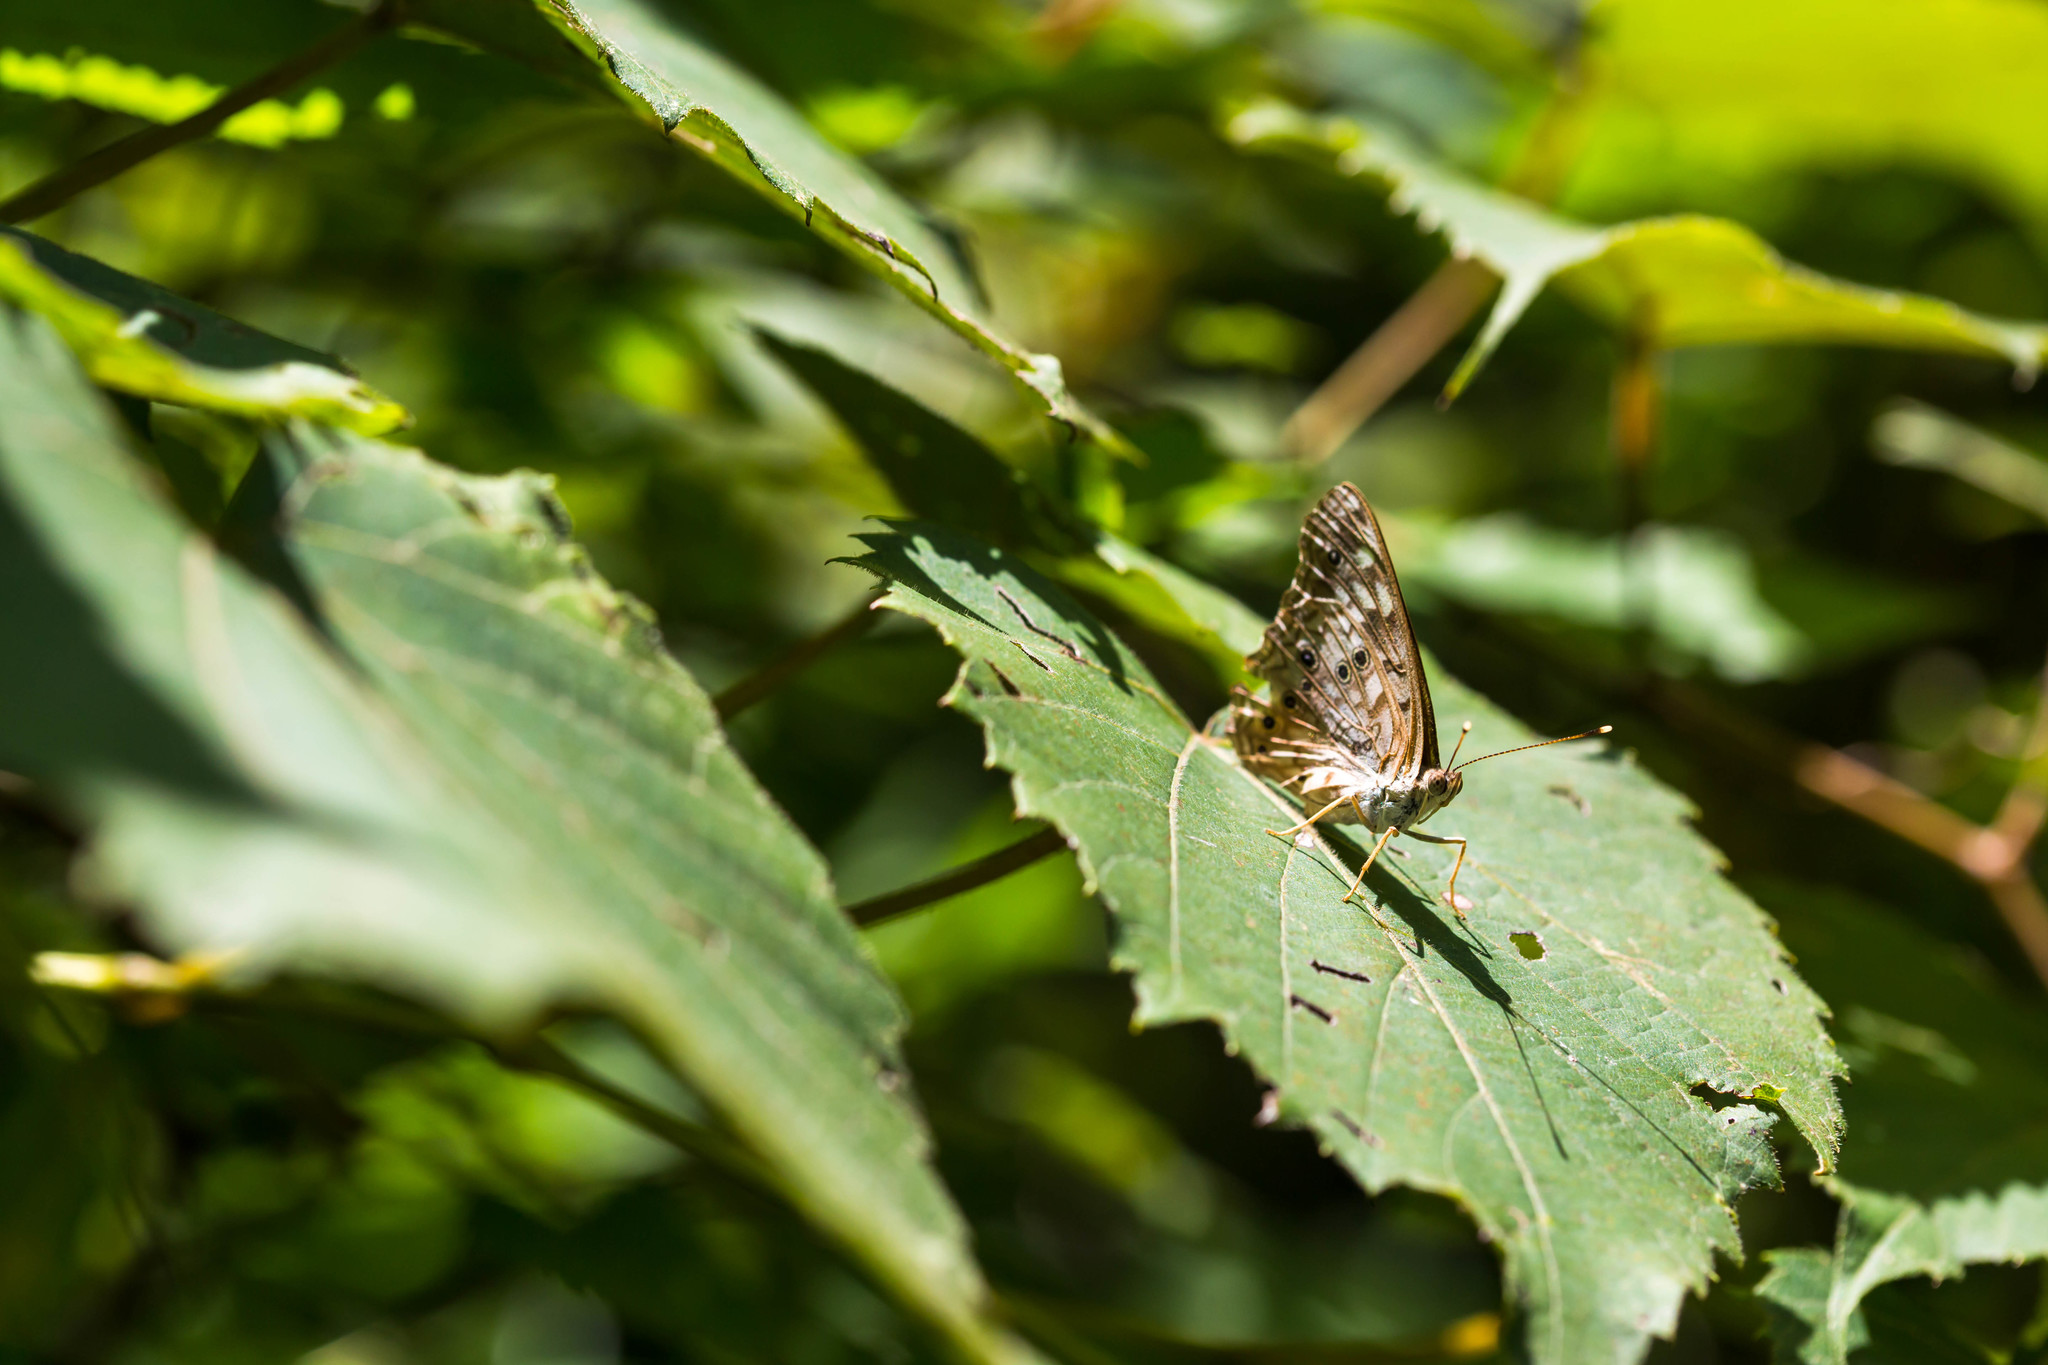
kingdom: Animalia
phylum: Arthropoda
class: Insecta
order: Lepidoptera
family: Nymphalidae
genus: Asterocampa
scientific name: Asterocampa celtis
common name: Hackberry emperor
